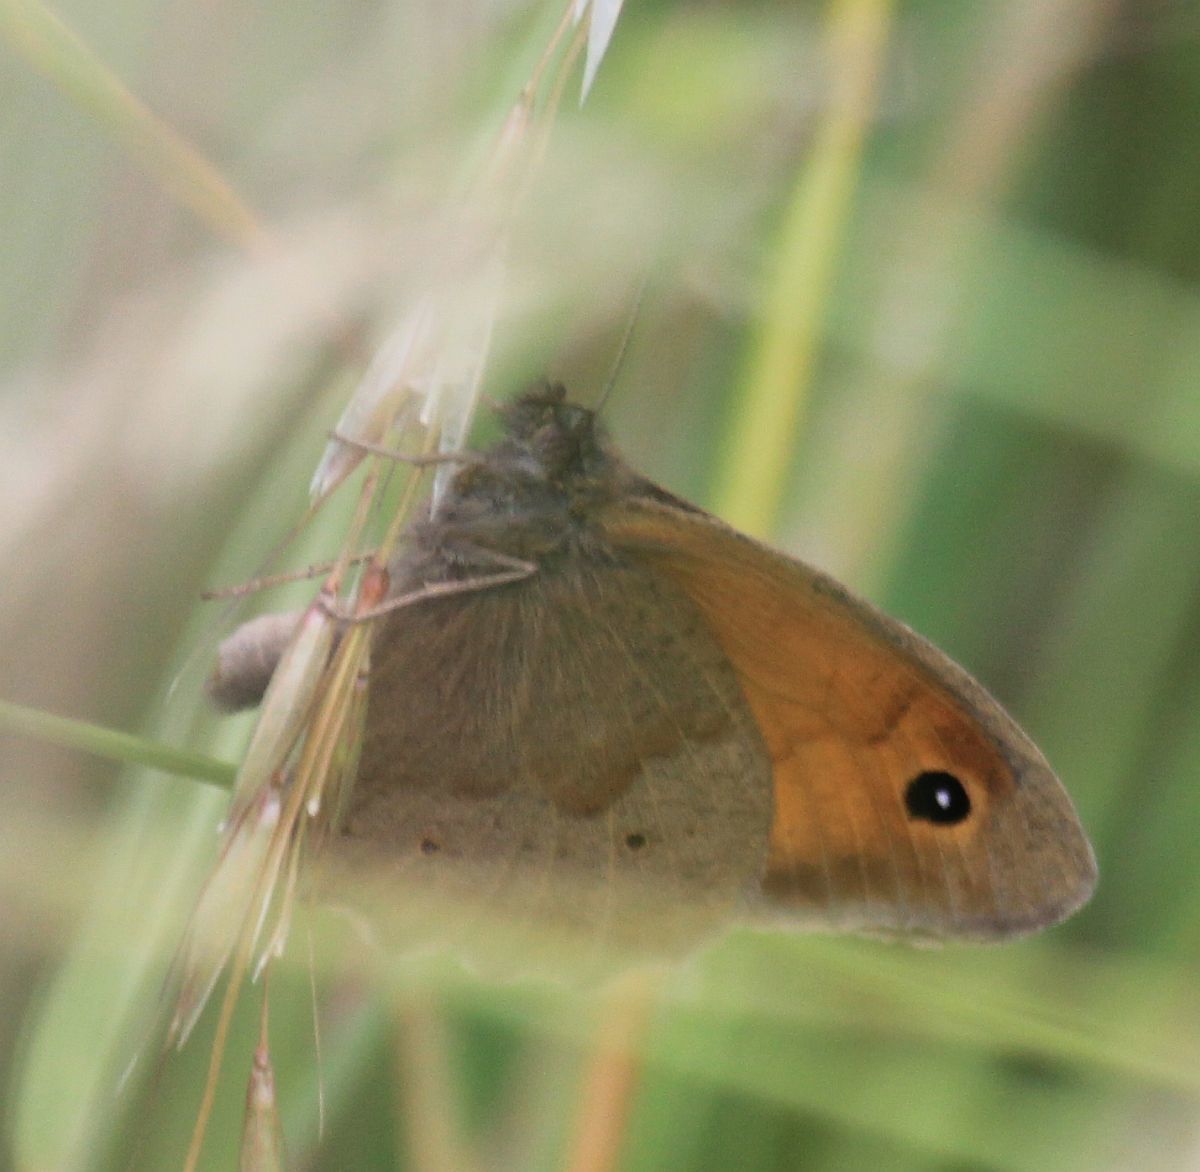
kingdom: Animalia
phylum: Arthropoda
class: Insecta
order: Lepidoptera
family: Nymphalidae
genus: Maniola
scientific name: Maniola jurtina
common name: Meadow brown
